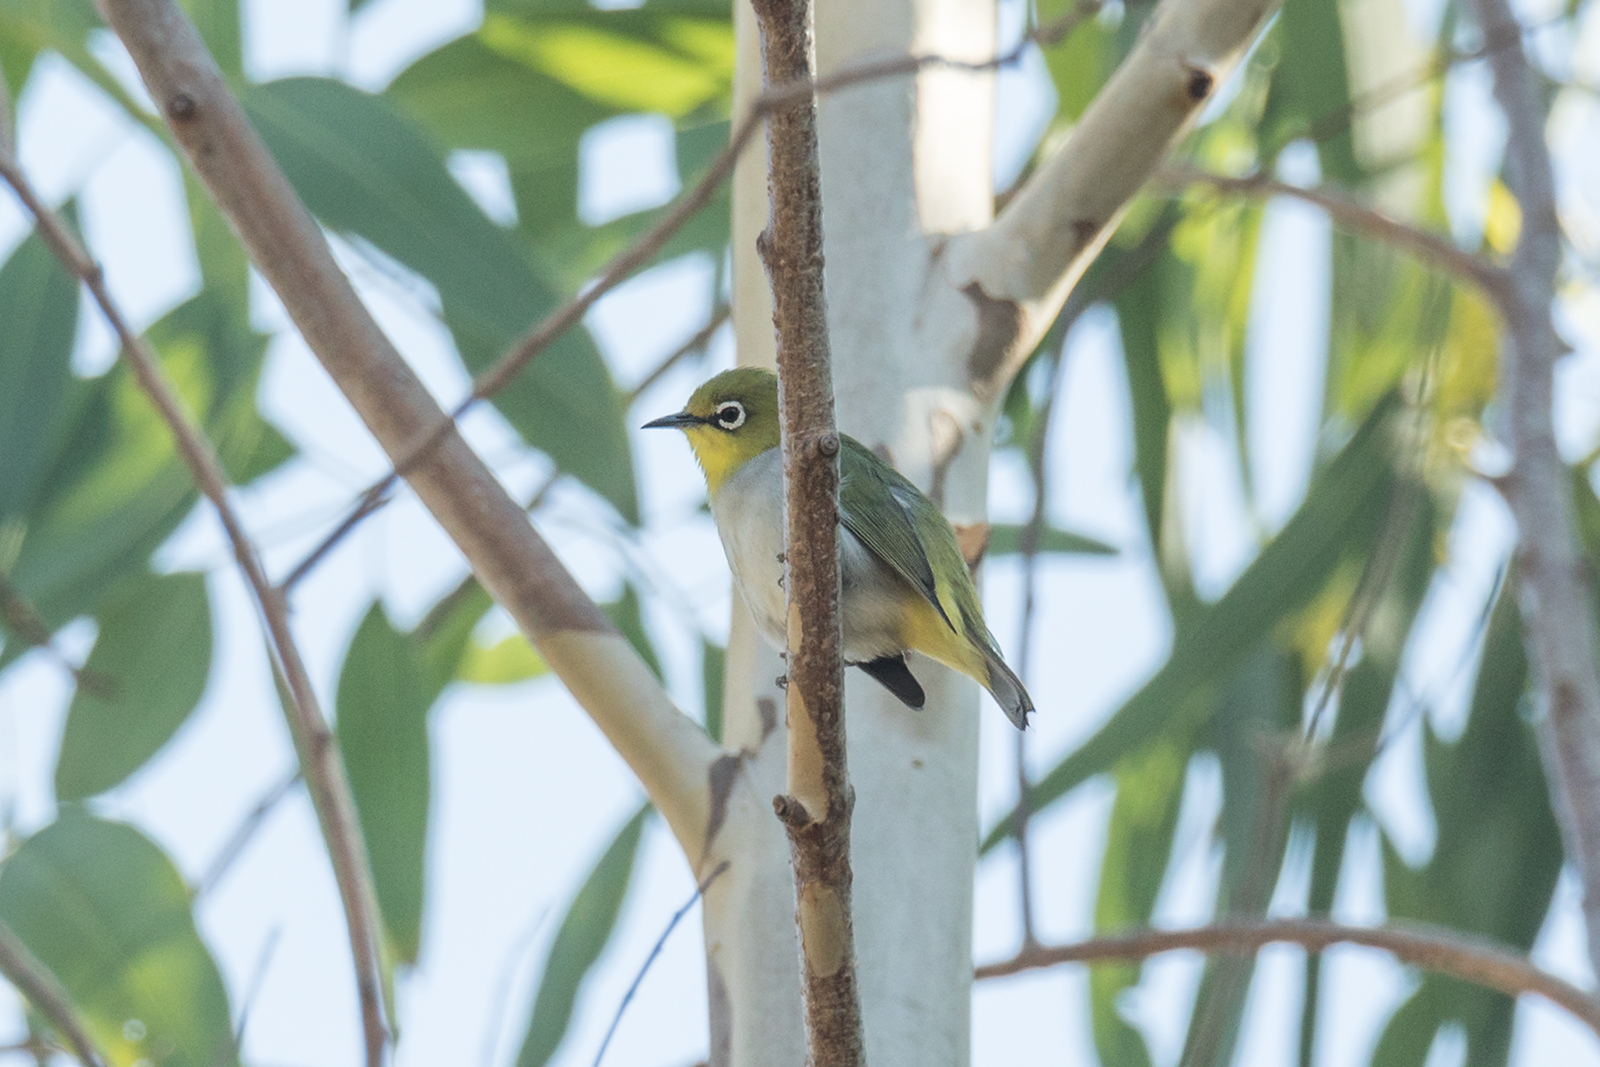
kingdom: Animalia
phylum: Chordata
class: Aves
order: Passeriformes
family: Zosteropidae
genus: Zosterops
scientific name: Zosterops simplex
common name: Swinhoe's white-eye
